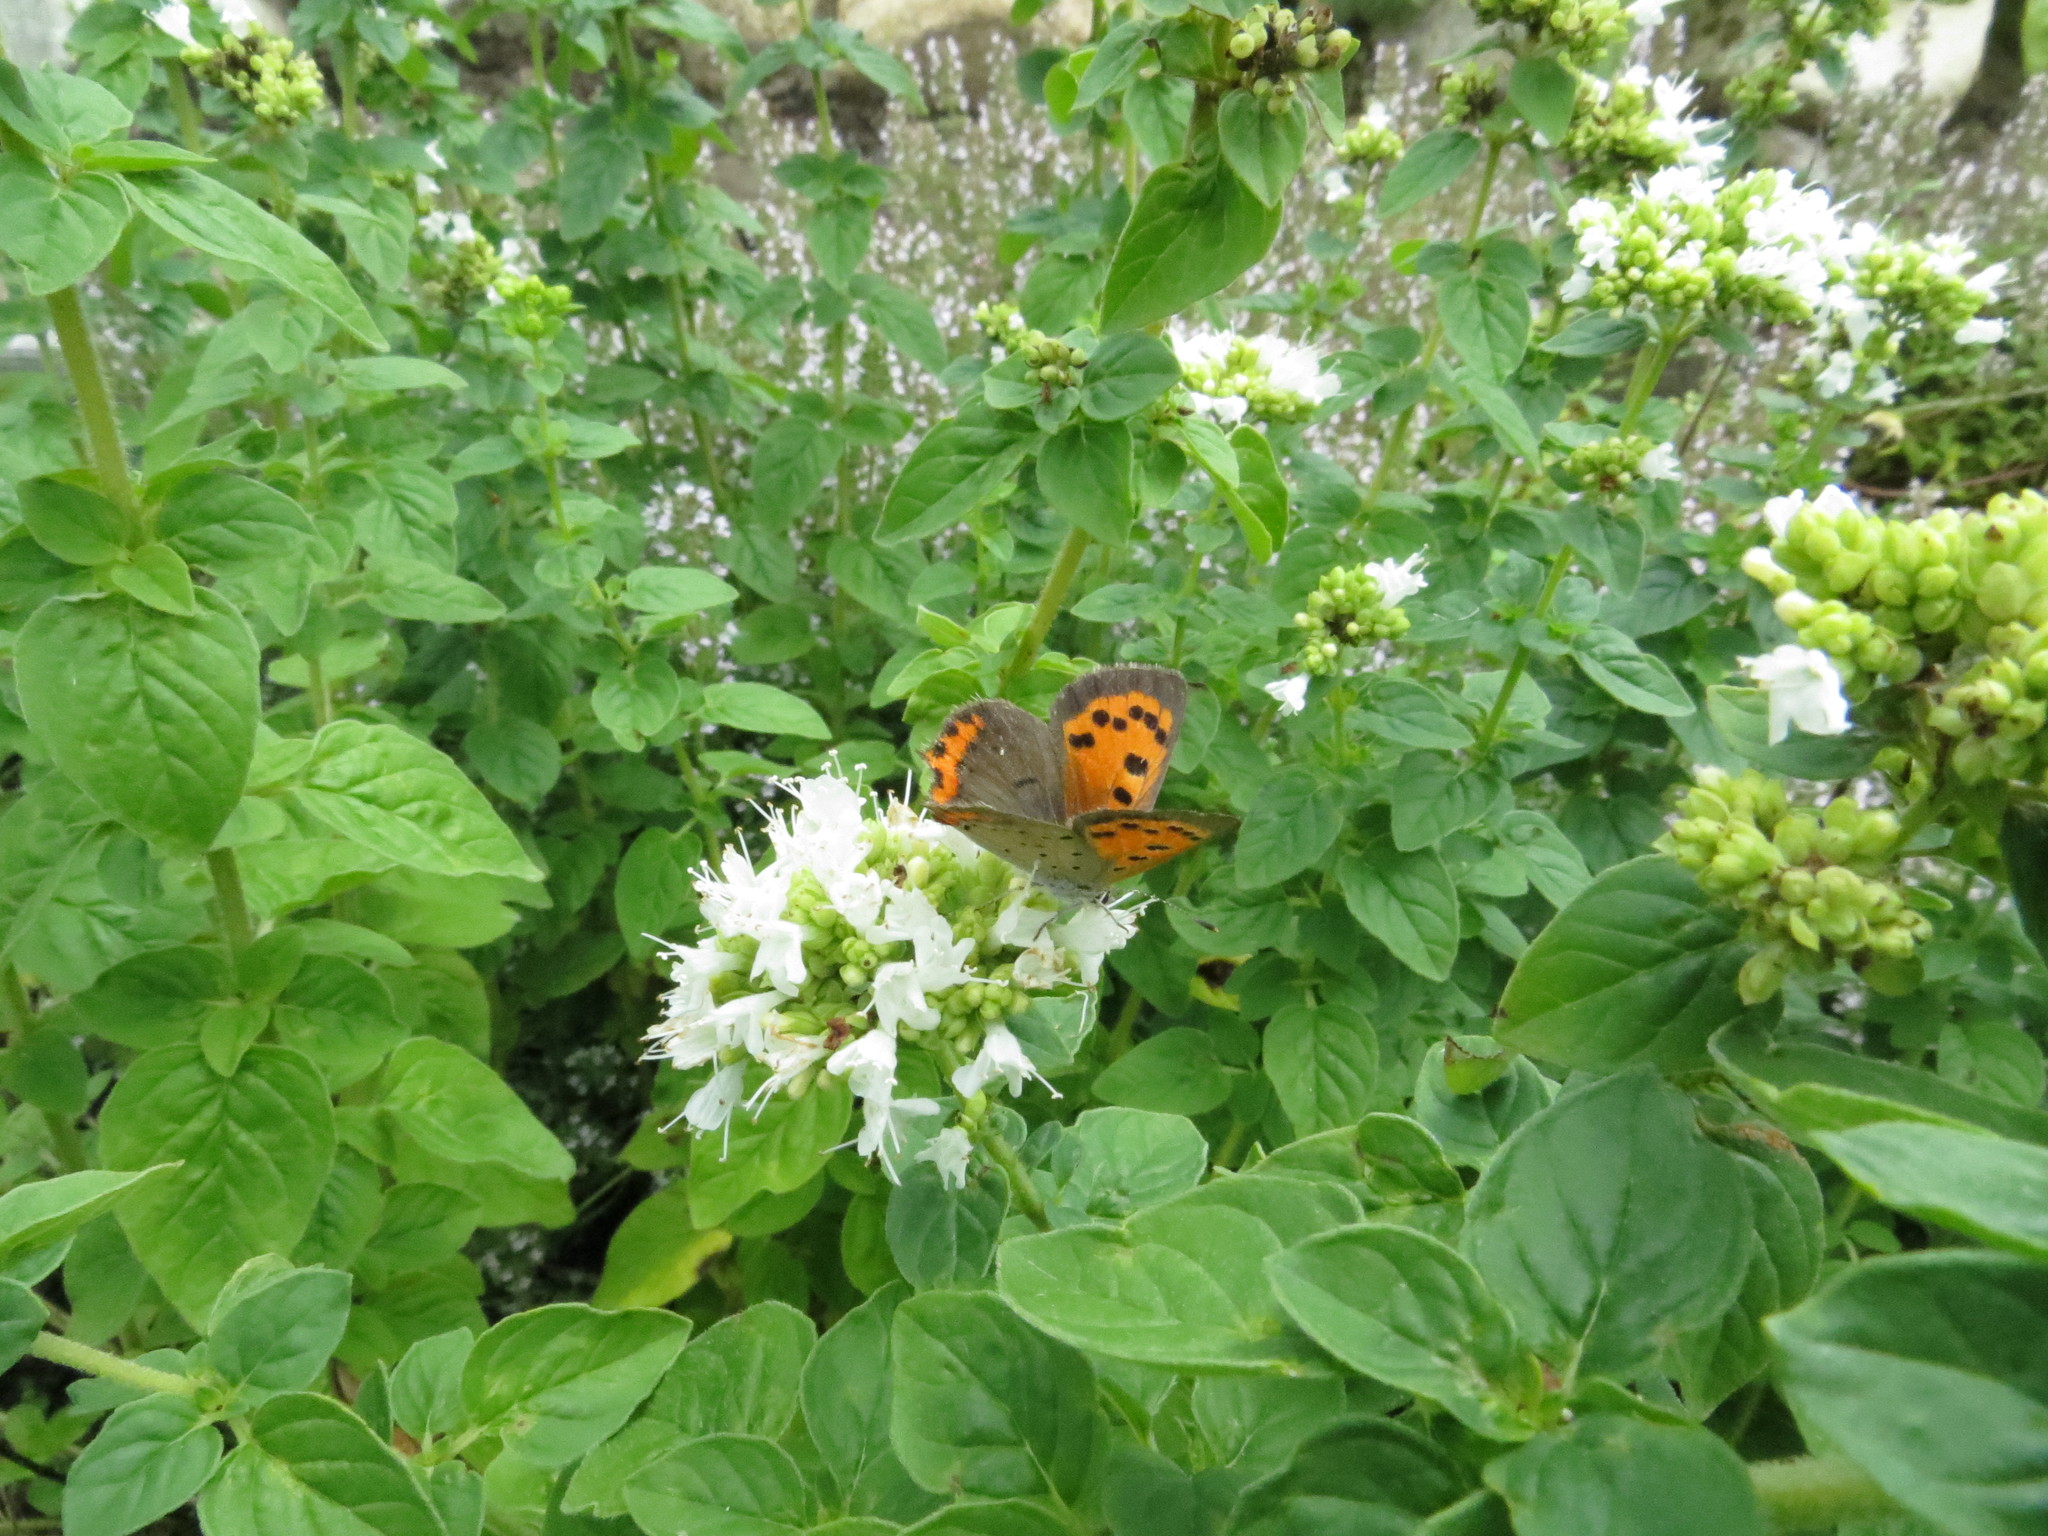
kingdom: Animalia
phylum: Arthropoda
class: Insecta
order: Lepidoptera
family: Lycaenidae
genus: Lycaena
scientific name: Lycaena hypophlaeas
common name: American copper
